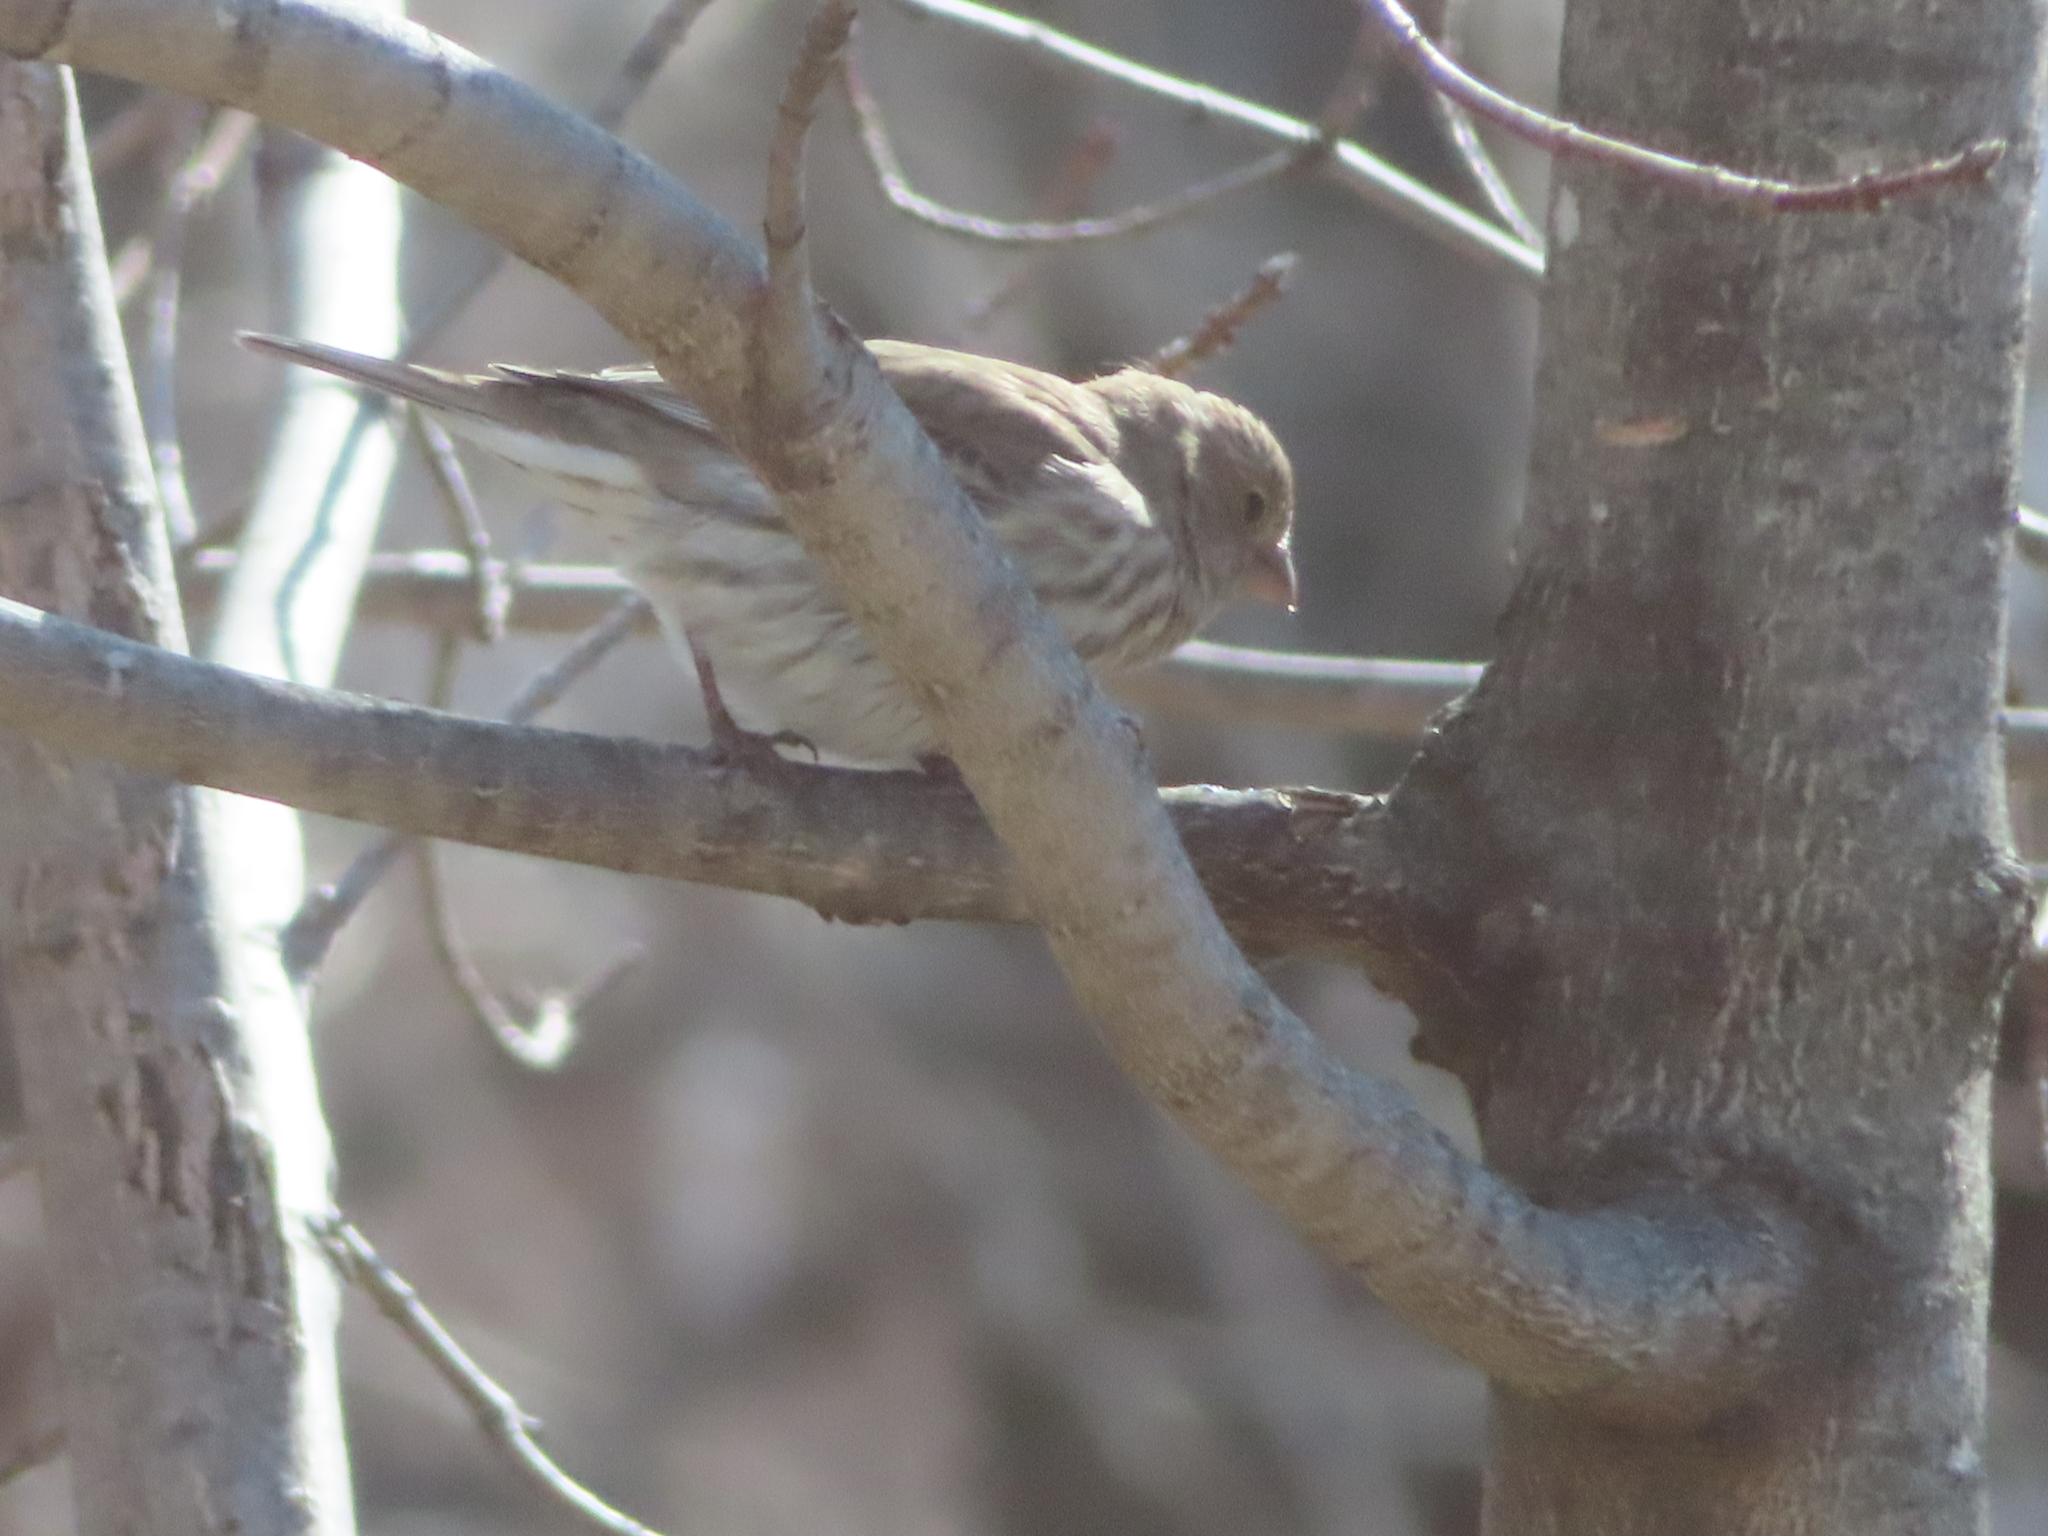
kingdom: Animalia
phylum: Chordata
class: Aves
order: Passeriformes
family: Fringillidae
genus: Haemorhous
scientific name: Haemorhous mexicanus
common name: House finch
